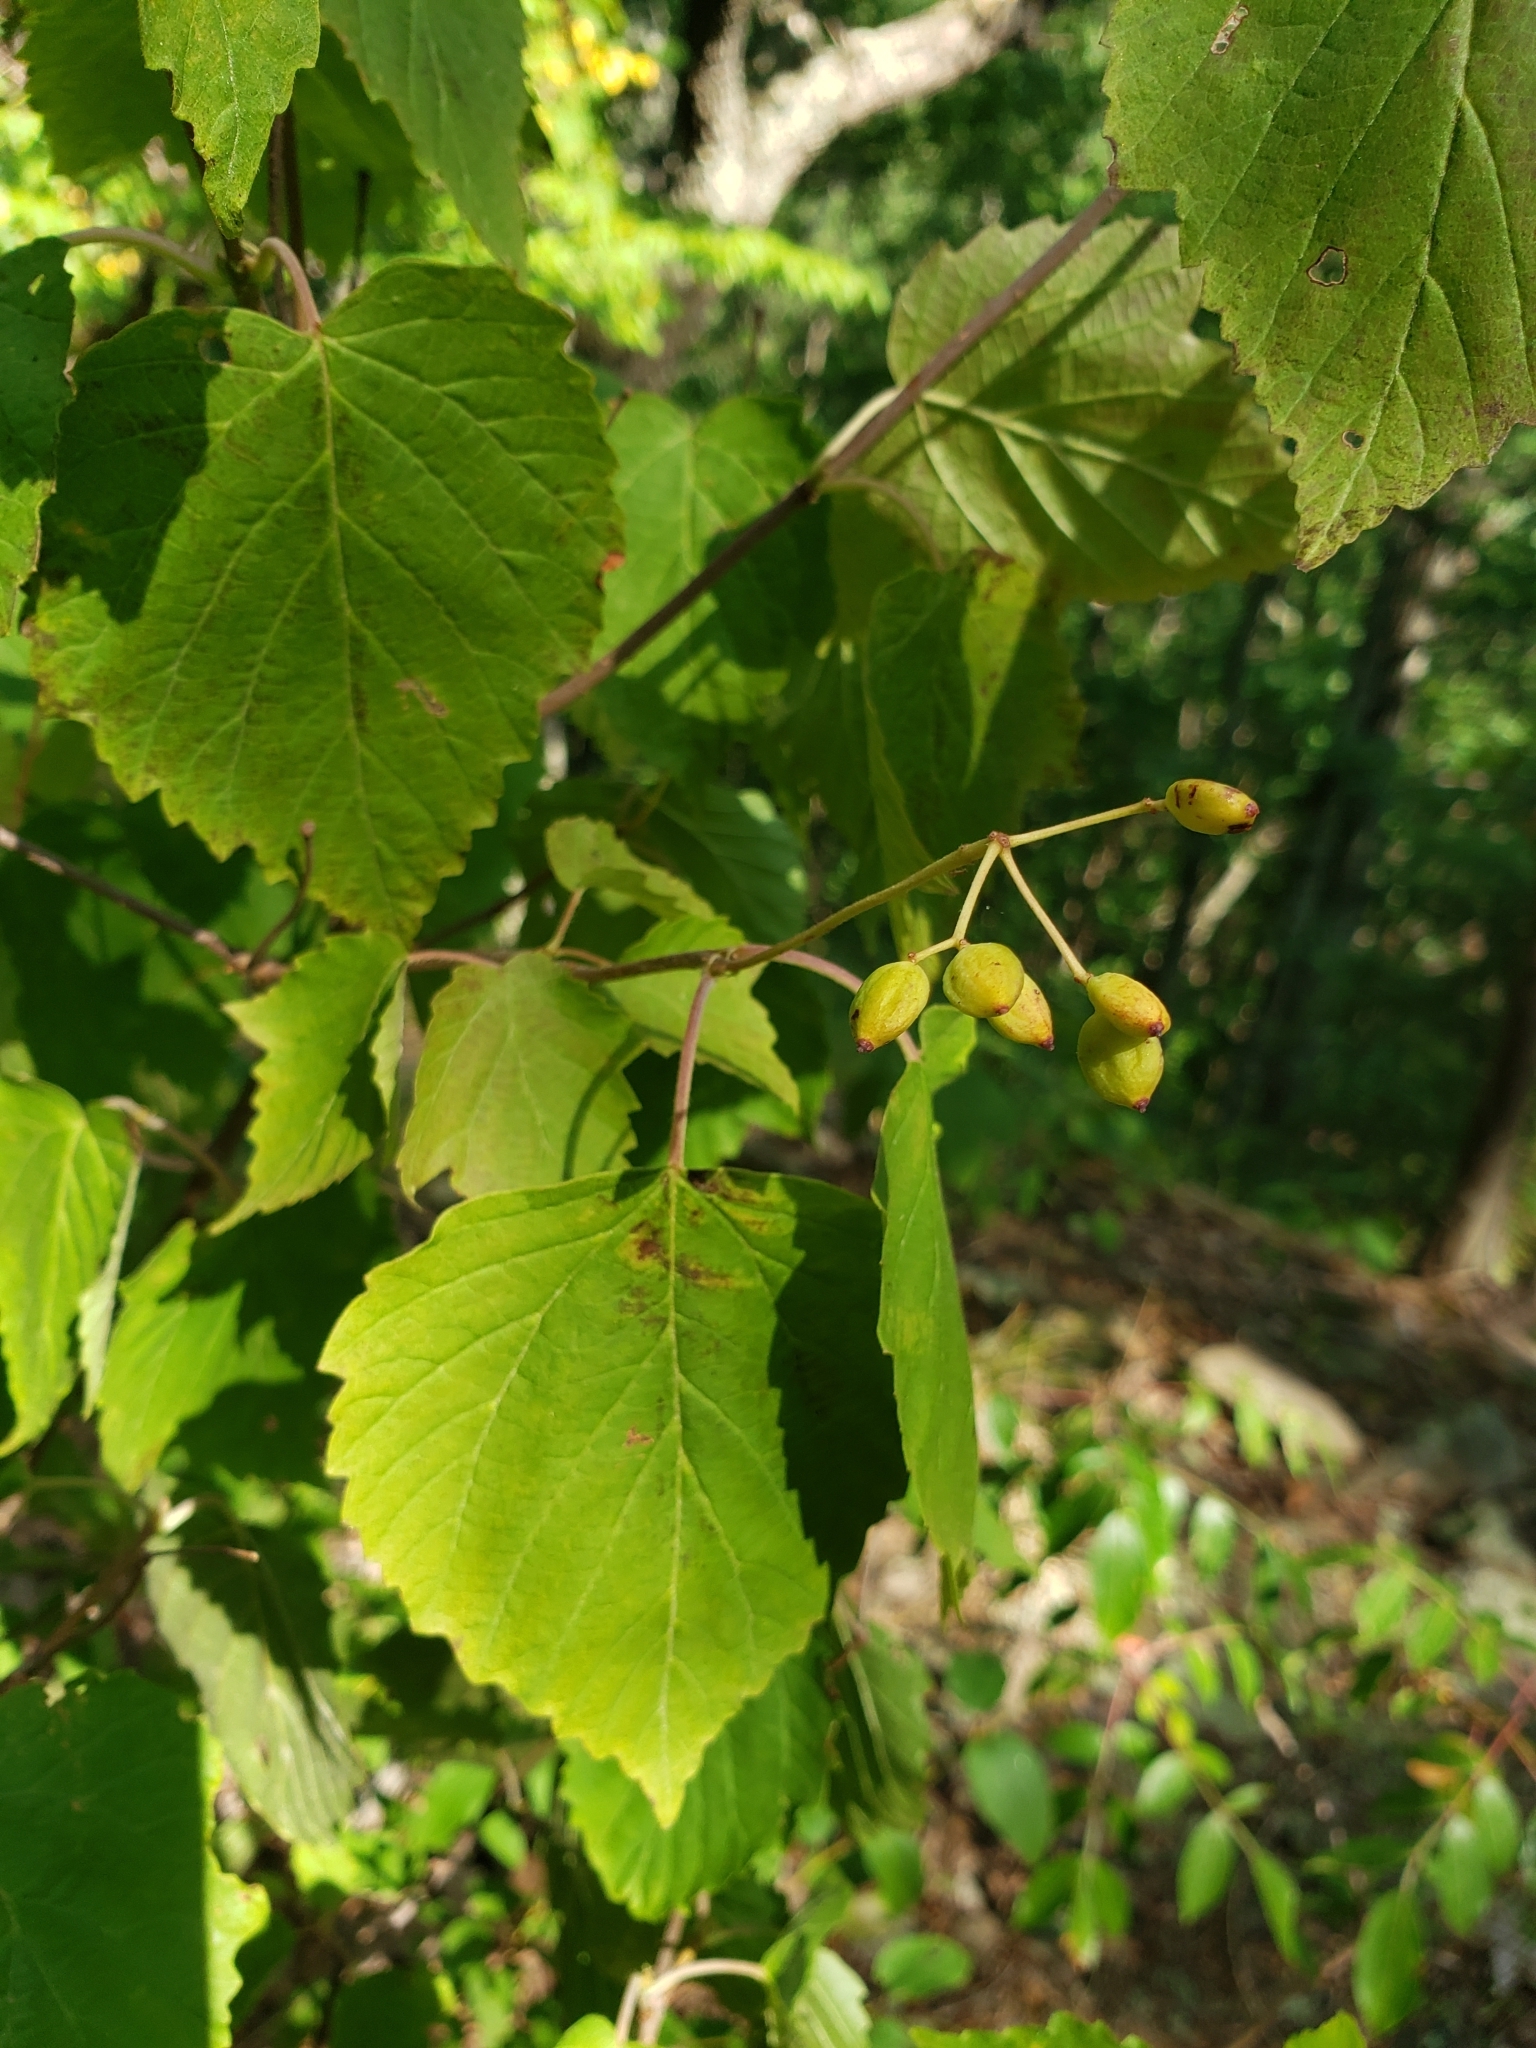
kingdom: Plantae
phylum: Tracheophyta
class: Magnoliopsida
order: Dipsacales
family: Viburnaceae
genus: Viburnum
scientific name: Viburnum acerifolium
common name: Dockmackie
